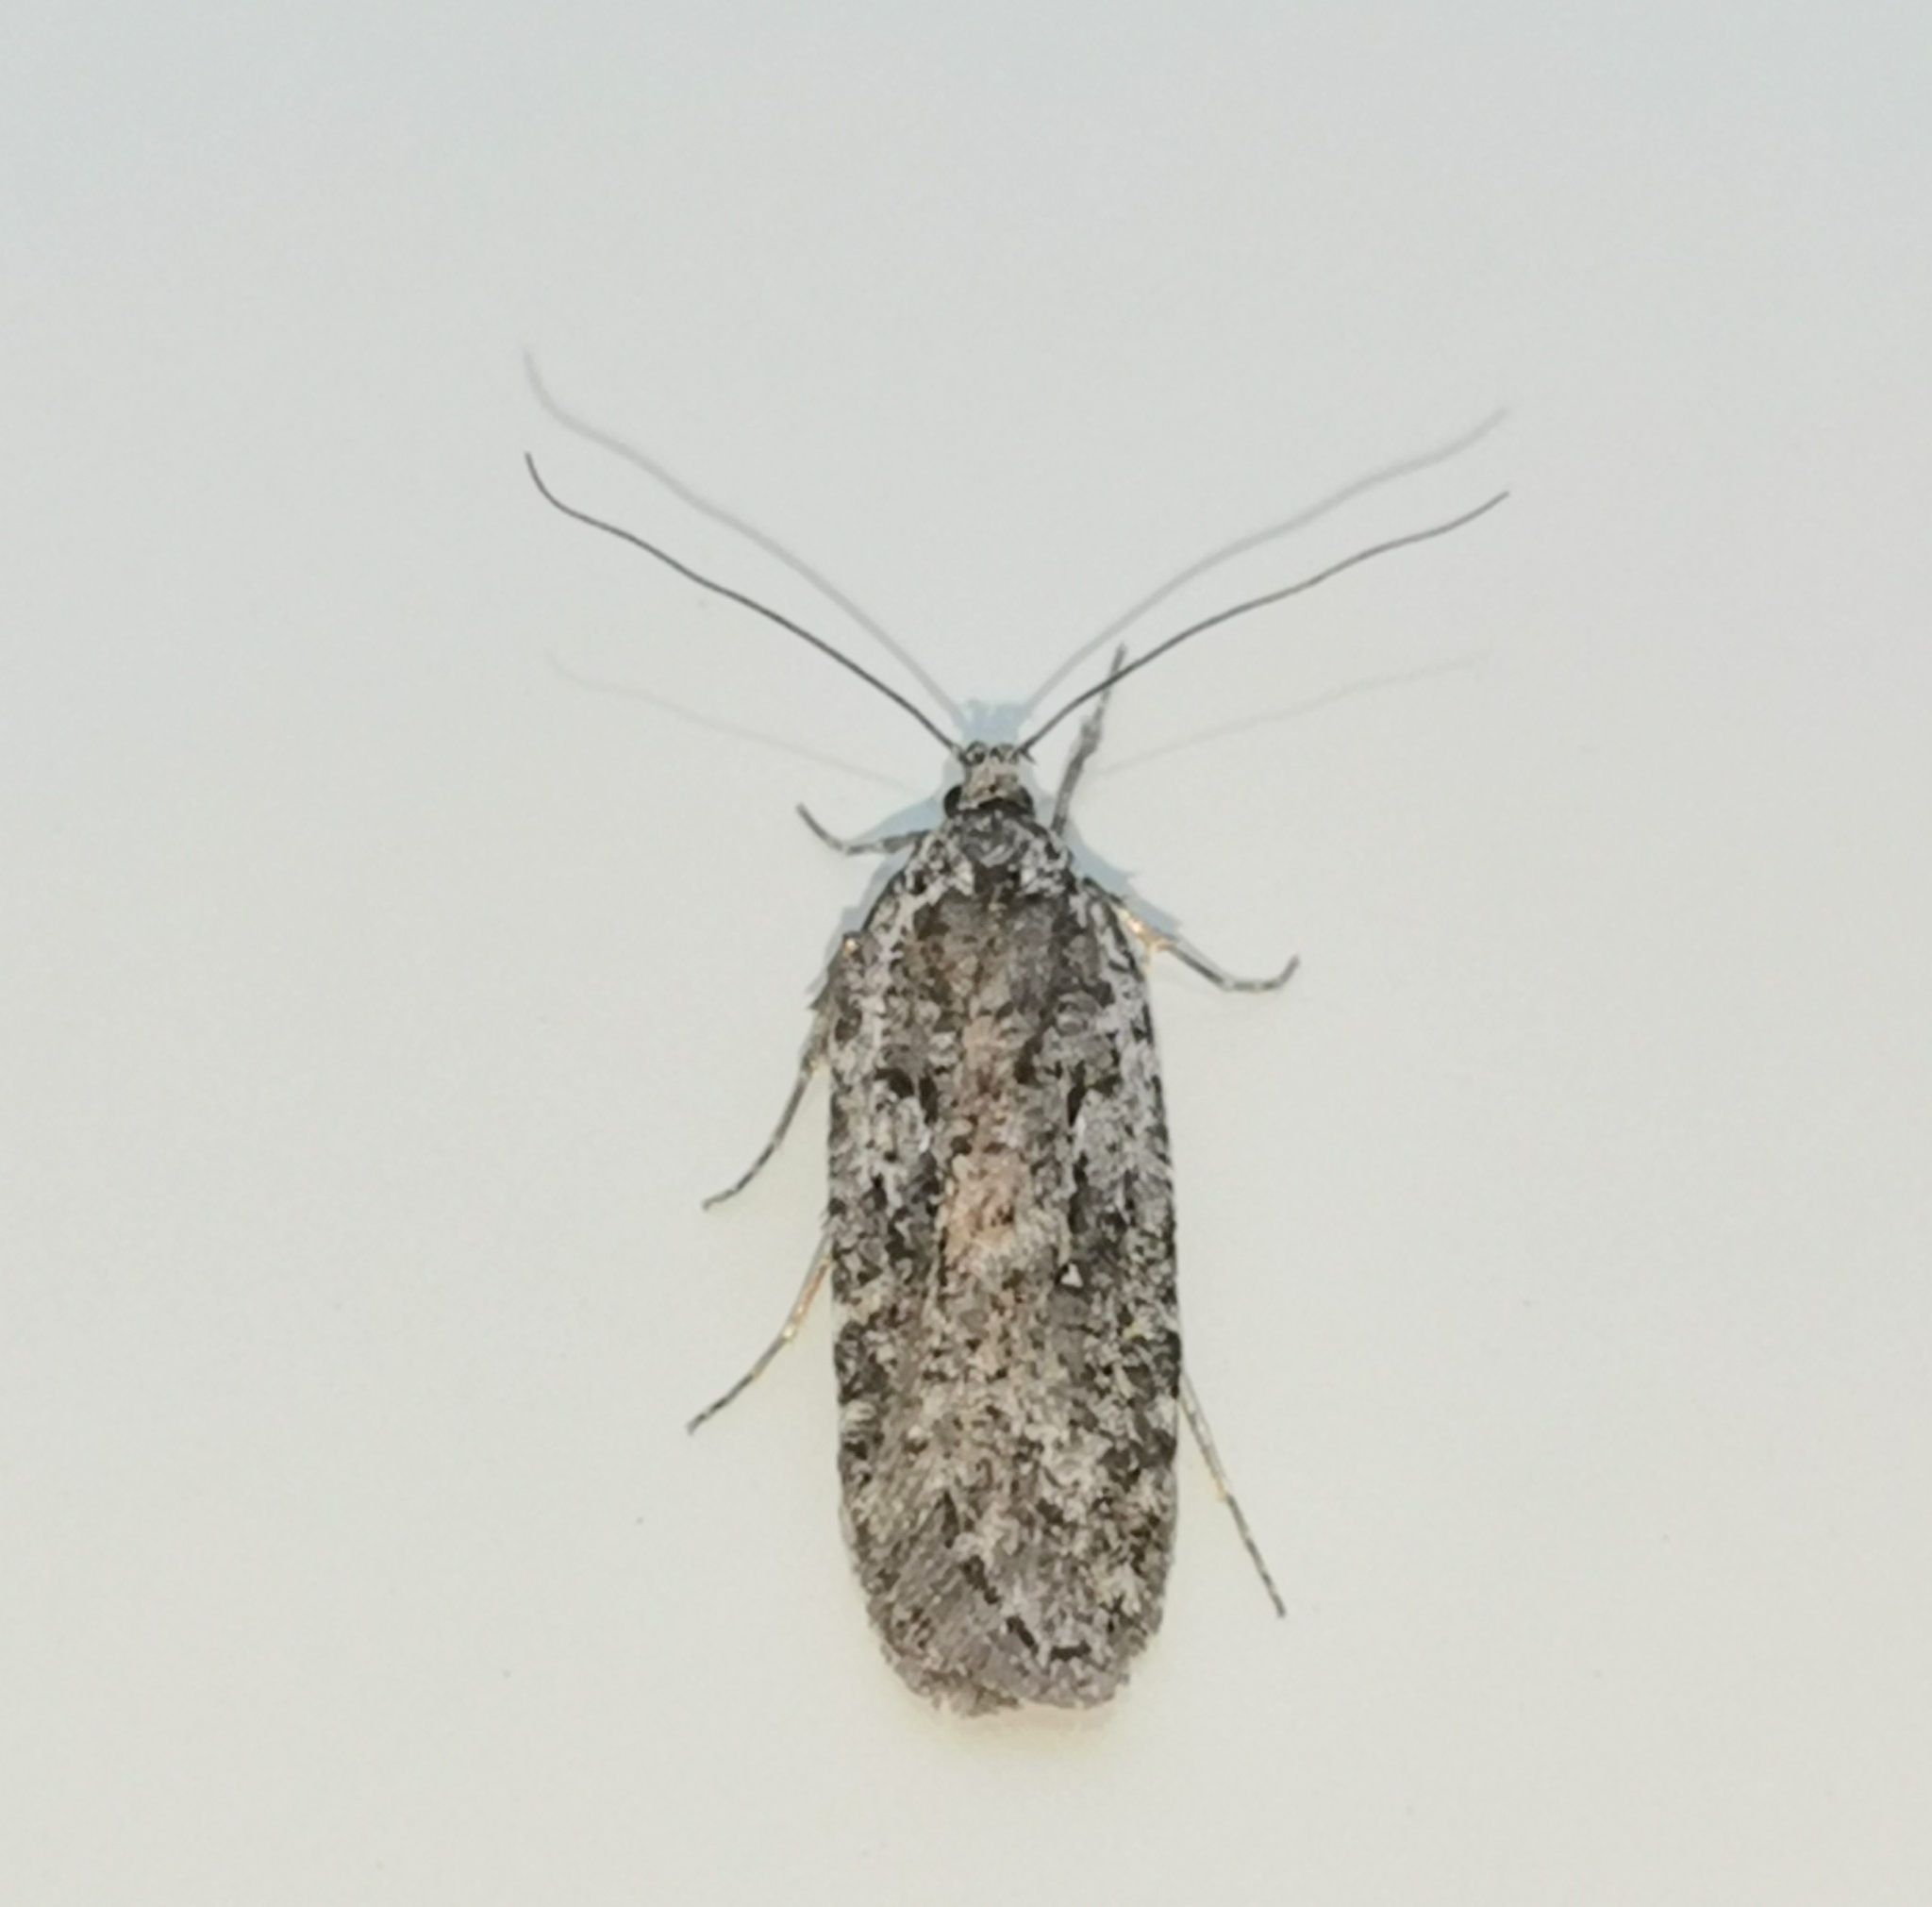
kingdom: Animalia
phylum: Arthropoda
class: Insecta
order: Lepidoptera
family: Depressariidae
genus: Exaeretia
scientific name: Exaeretia ciniflonella
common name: Scotch flat-body
